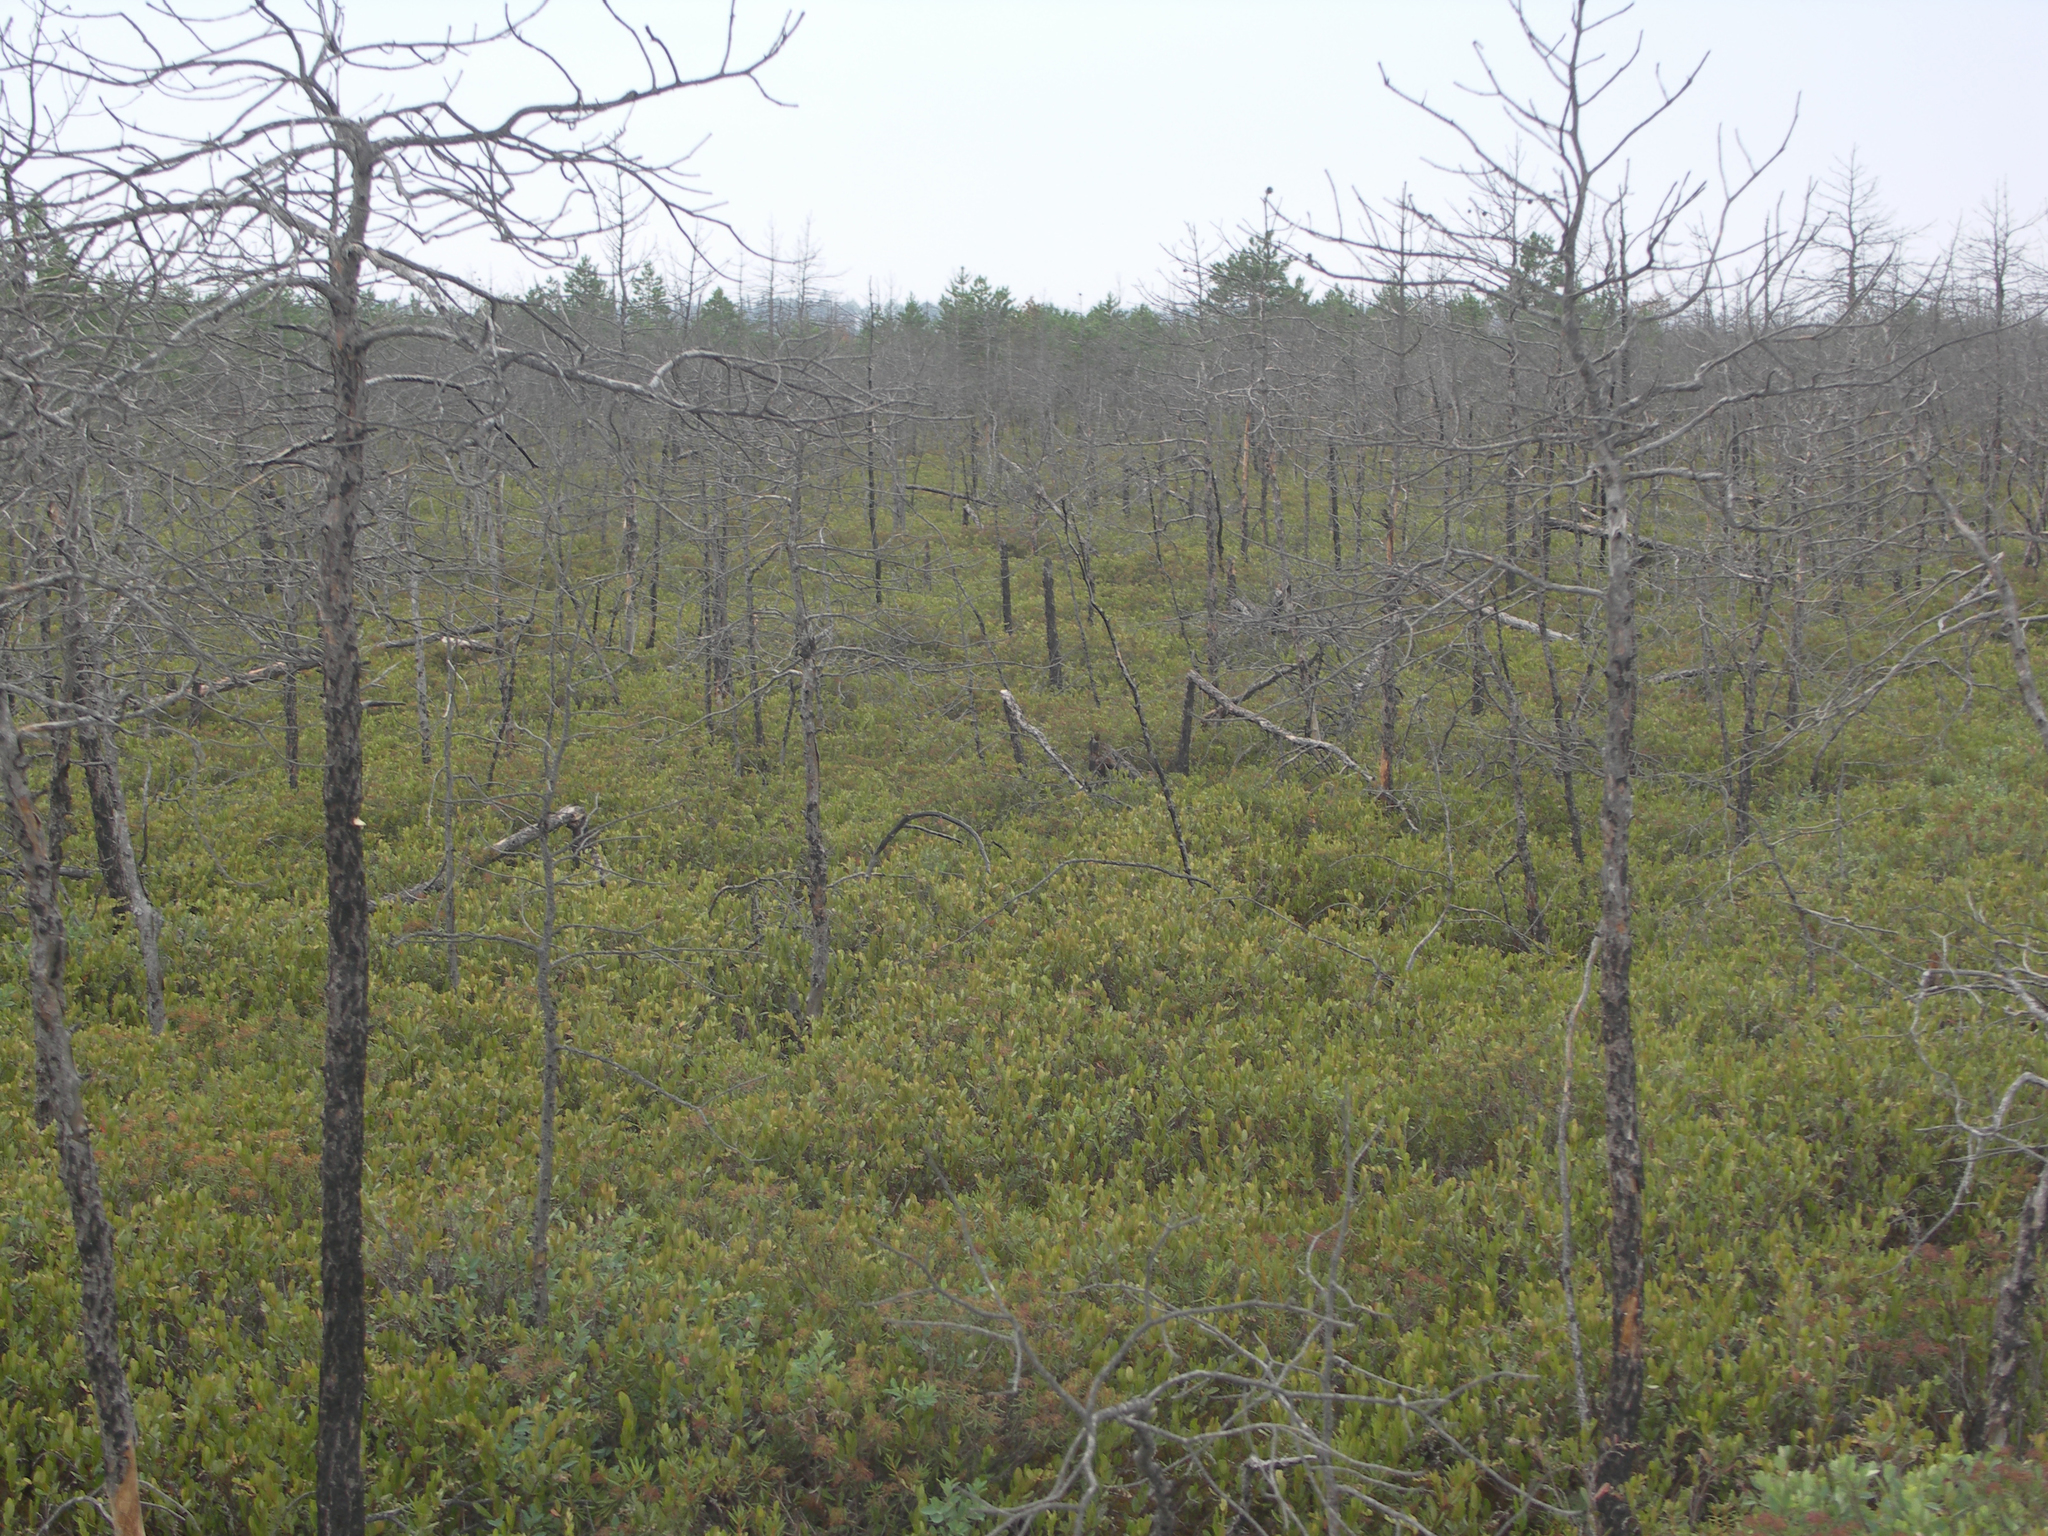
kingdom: Plantae
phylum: Tracheophyta
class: Pinopsida
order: Pinales
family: Pinaceae
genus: Pinus
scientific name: Pinus sylvestris
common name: Scots pine
